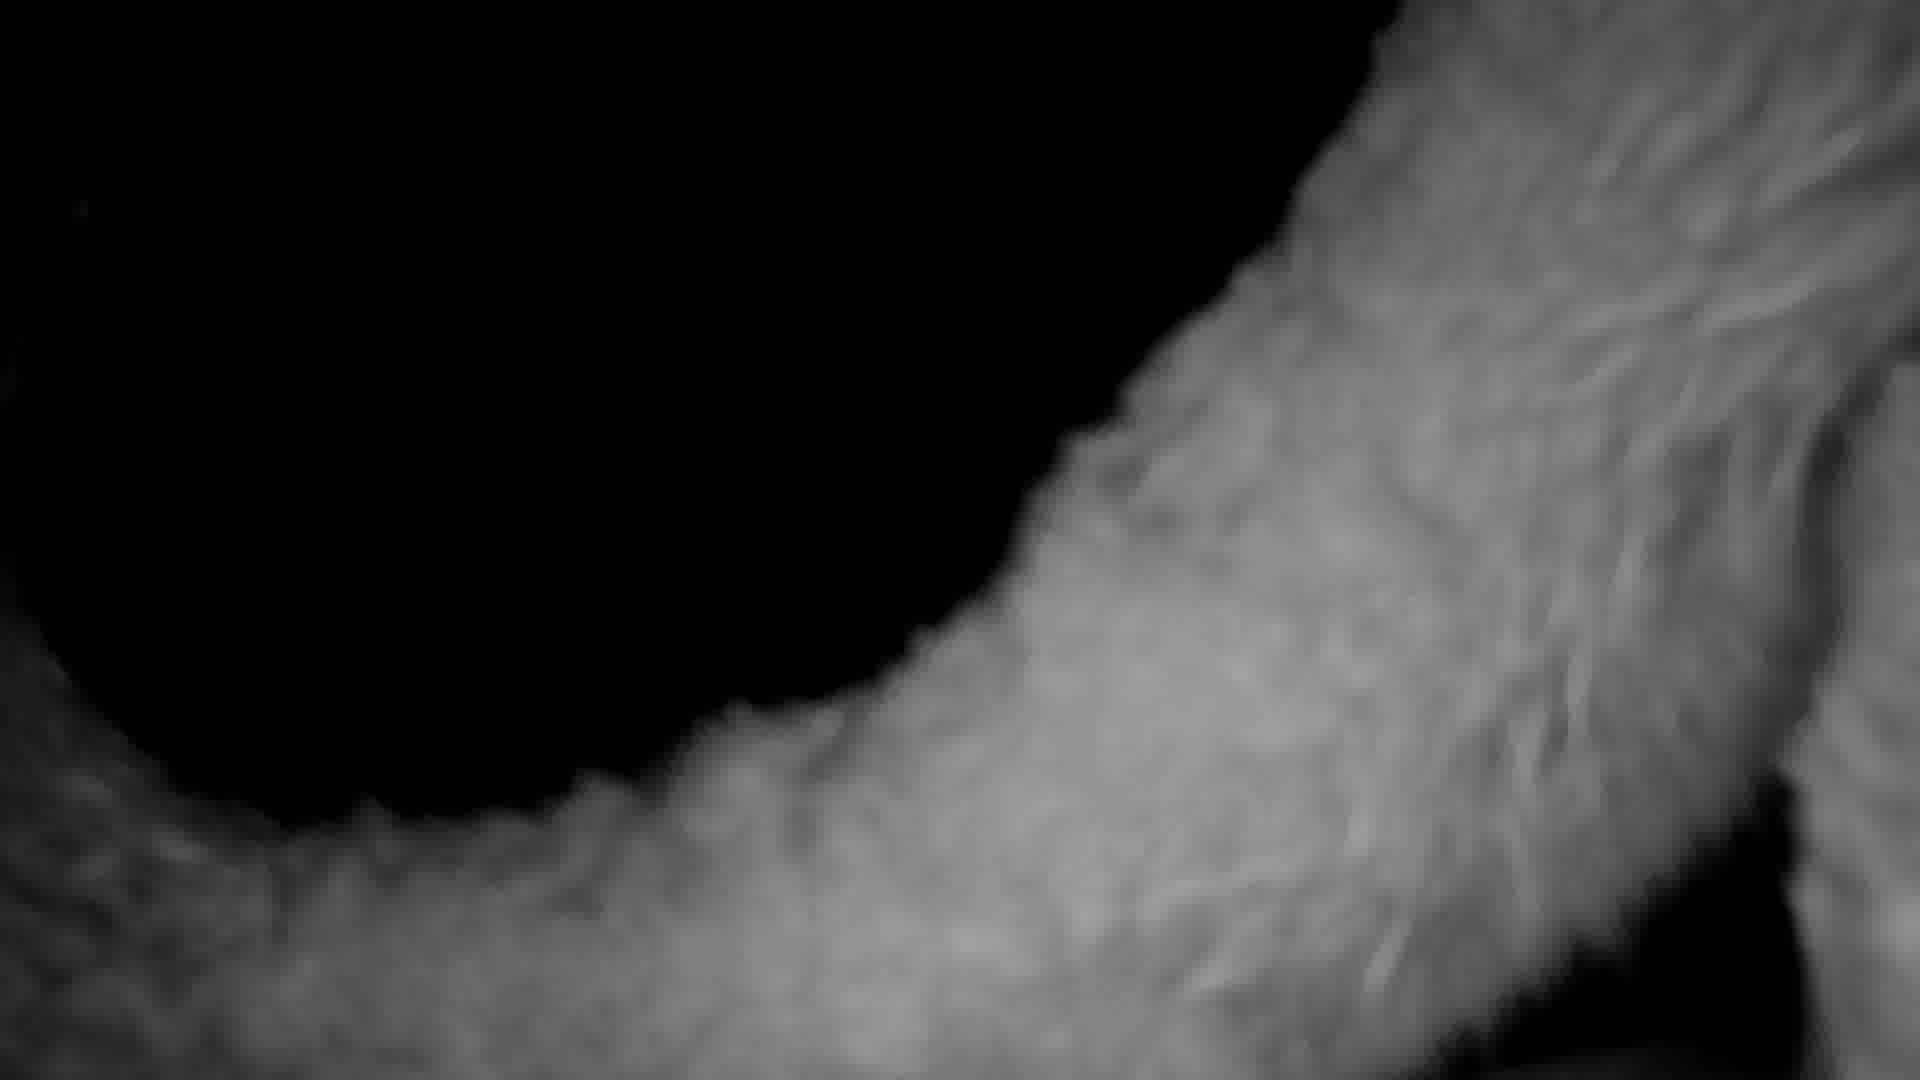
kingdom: Animalia
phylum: Chordata
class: Mammalia
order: Carnivora
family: Felidae
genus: Puma
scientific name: Puma concolor
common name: Puma
